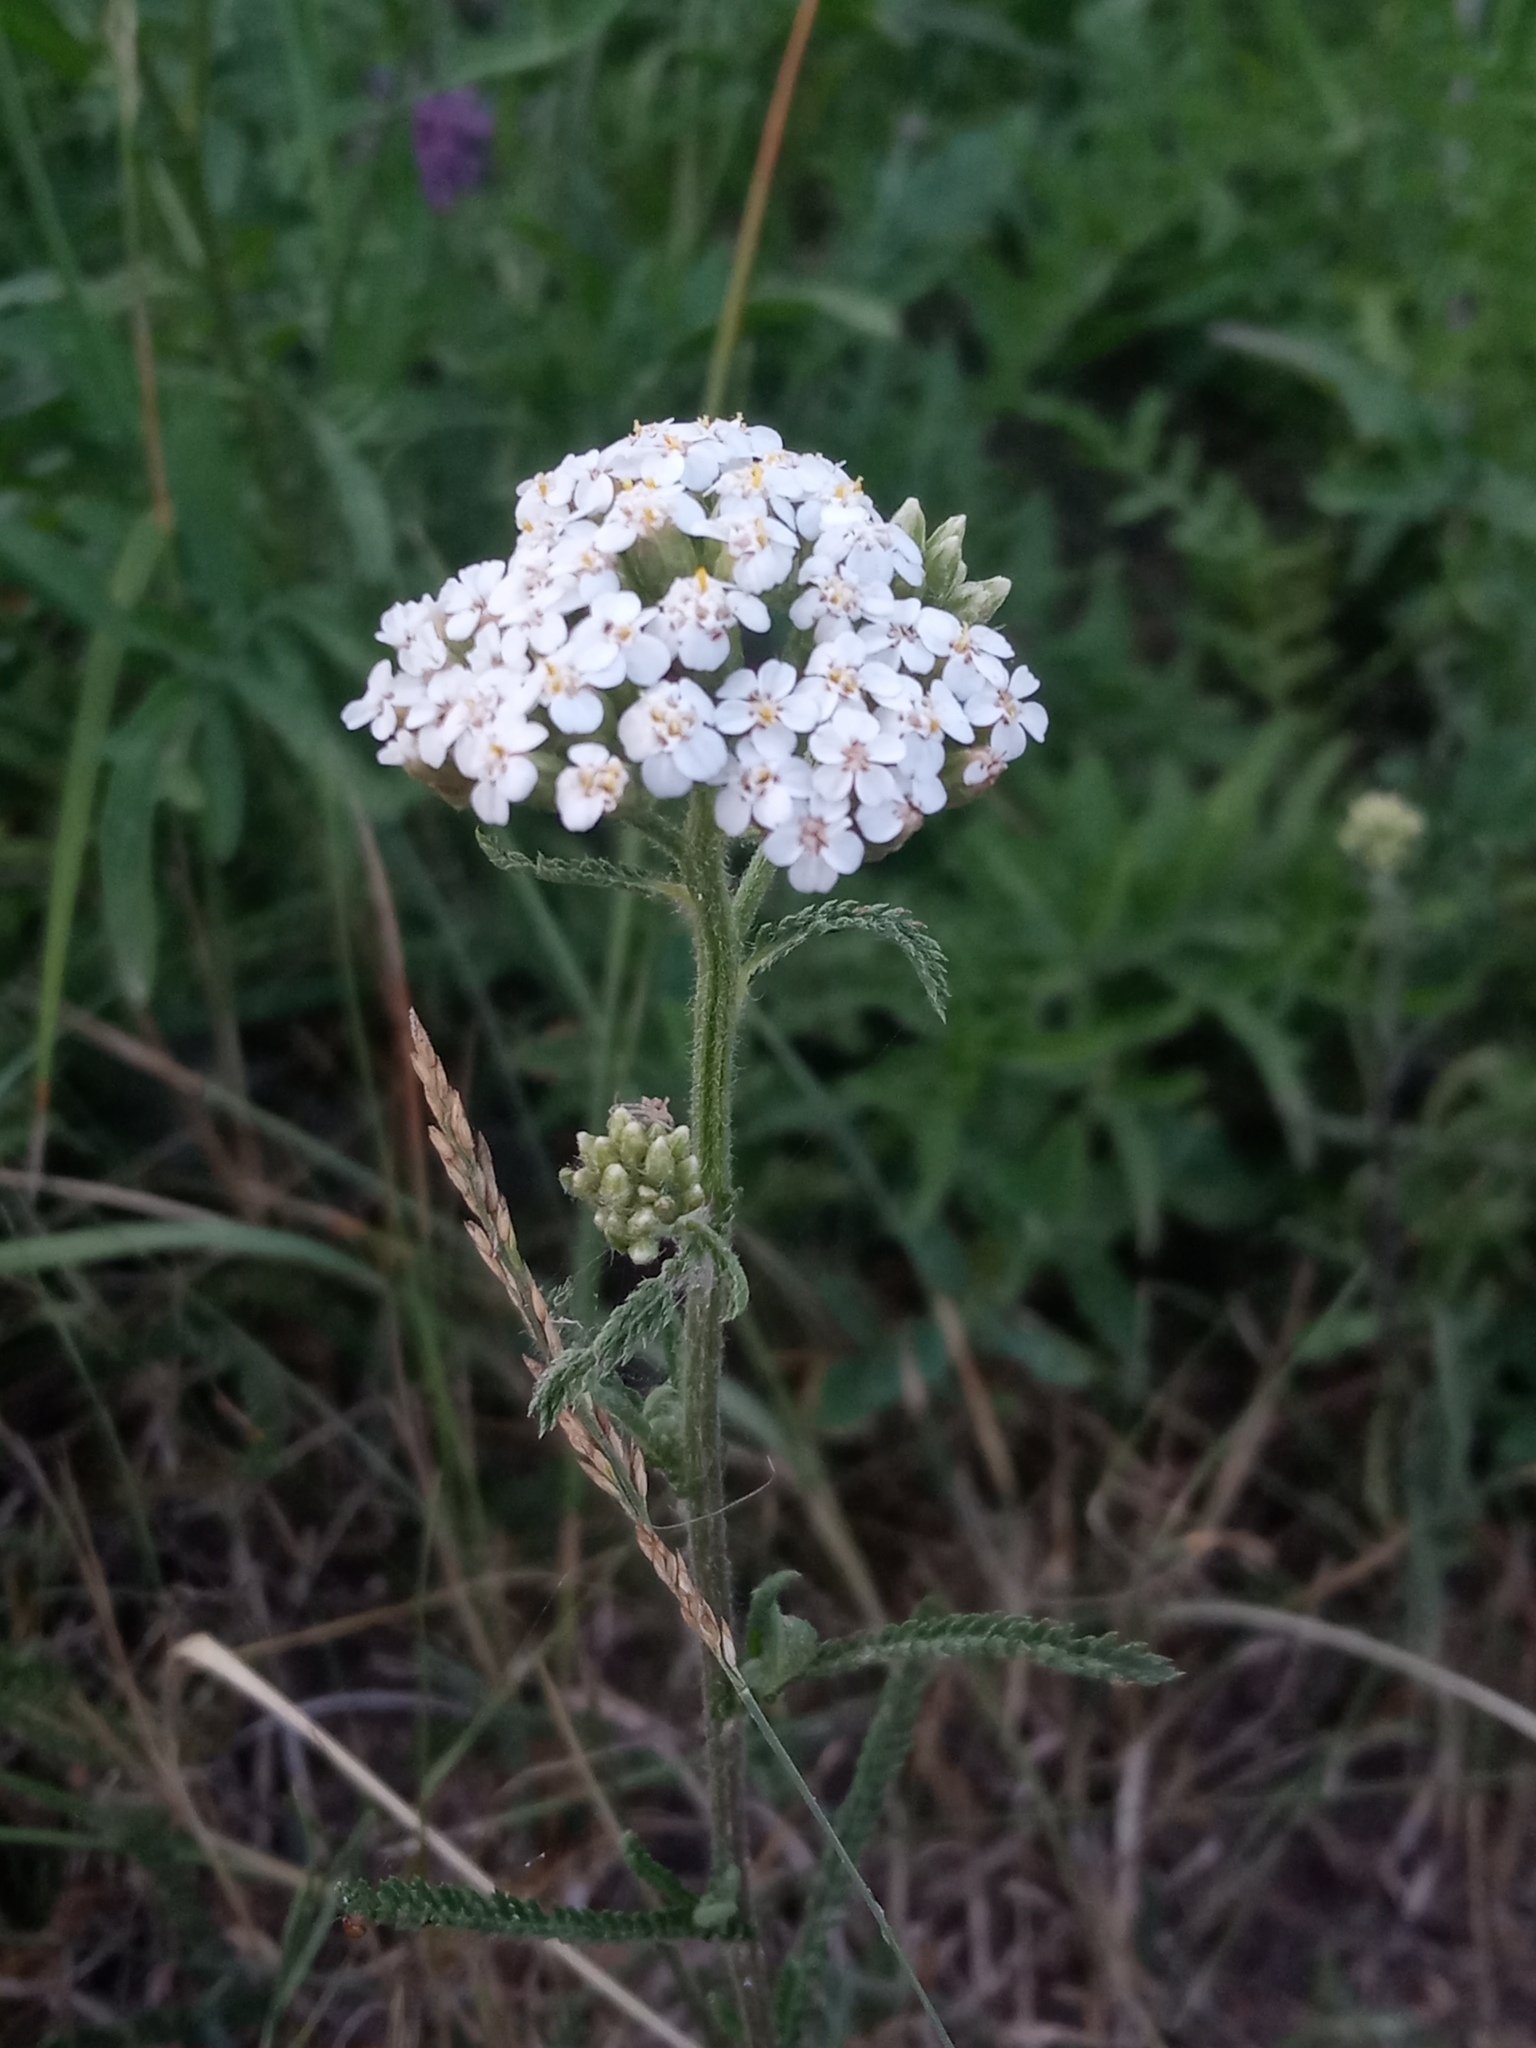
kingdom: Plantae
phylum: Tracheophyta
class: Magnoliopsida
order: Asterales
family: Asteraceae
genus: Achillea
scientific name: Achillea millefolium
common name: Yarrow
